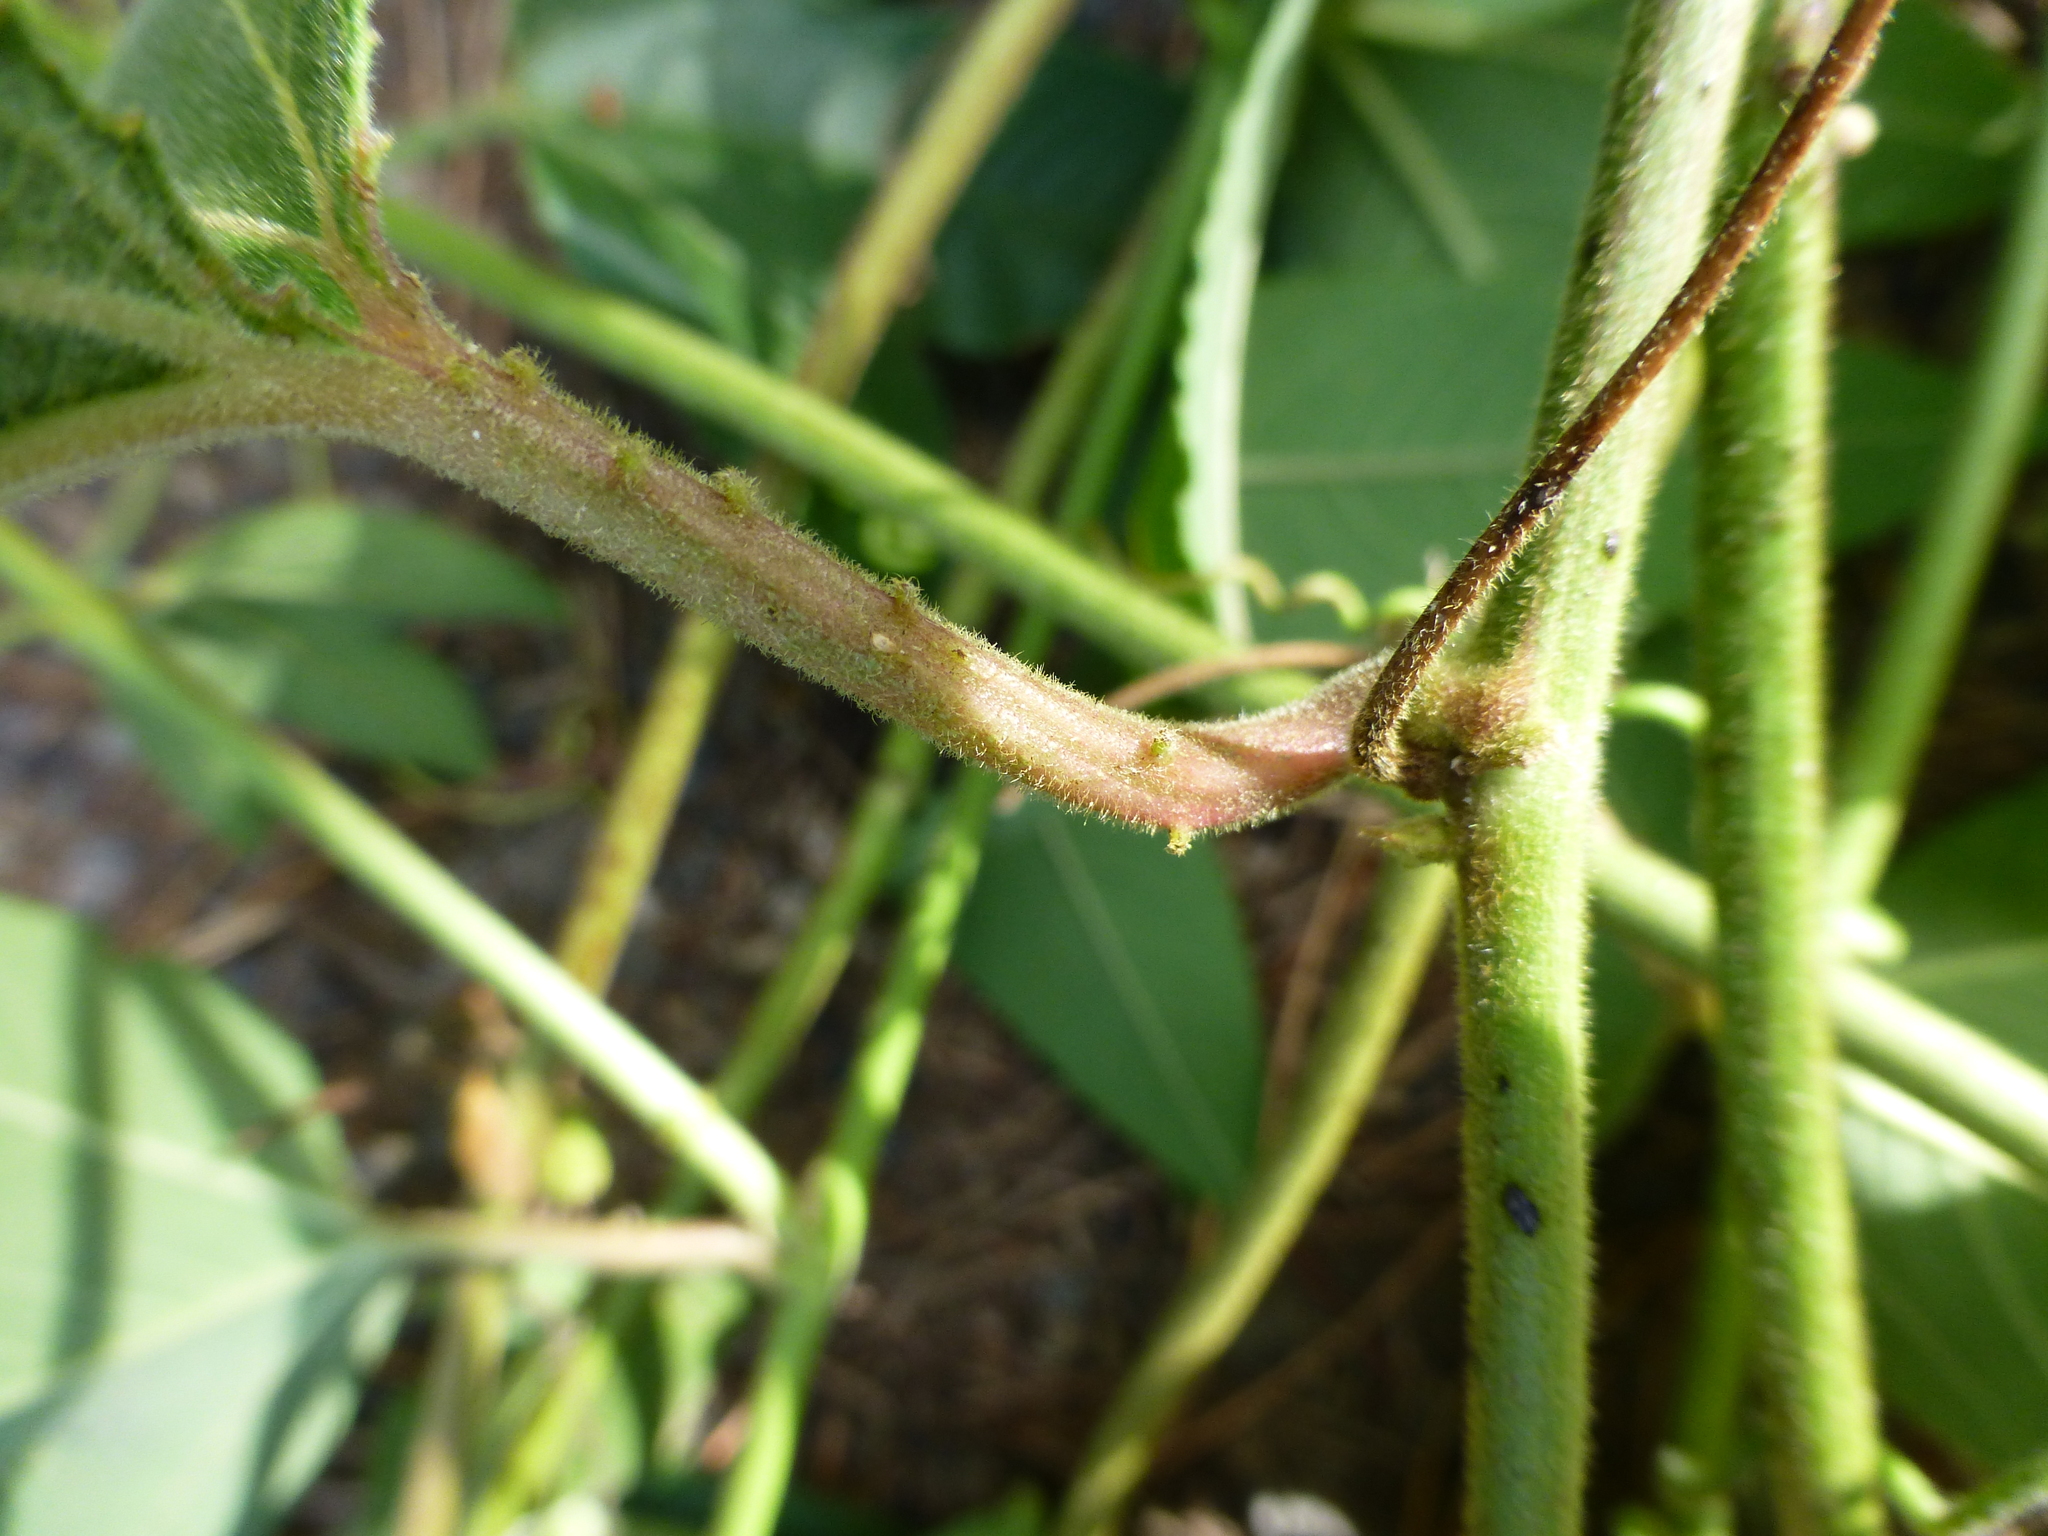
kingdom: Plantae
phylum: Tracheophyta
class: Magnoliopsida
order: Malpighiales
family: Passifloraceae
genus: Passiflora
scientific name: Passiflora tripartita
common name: Banana poka
